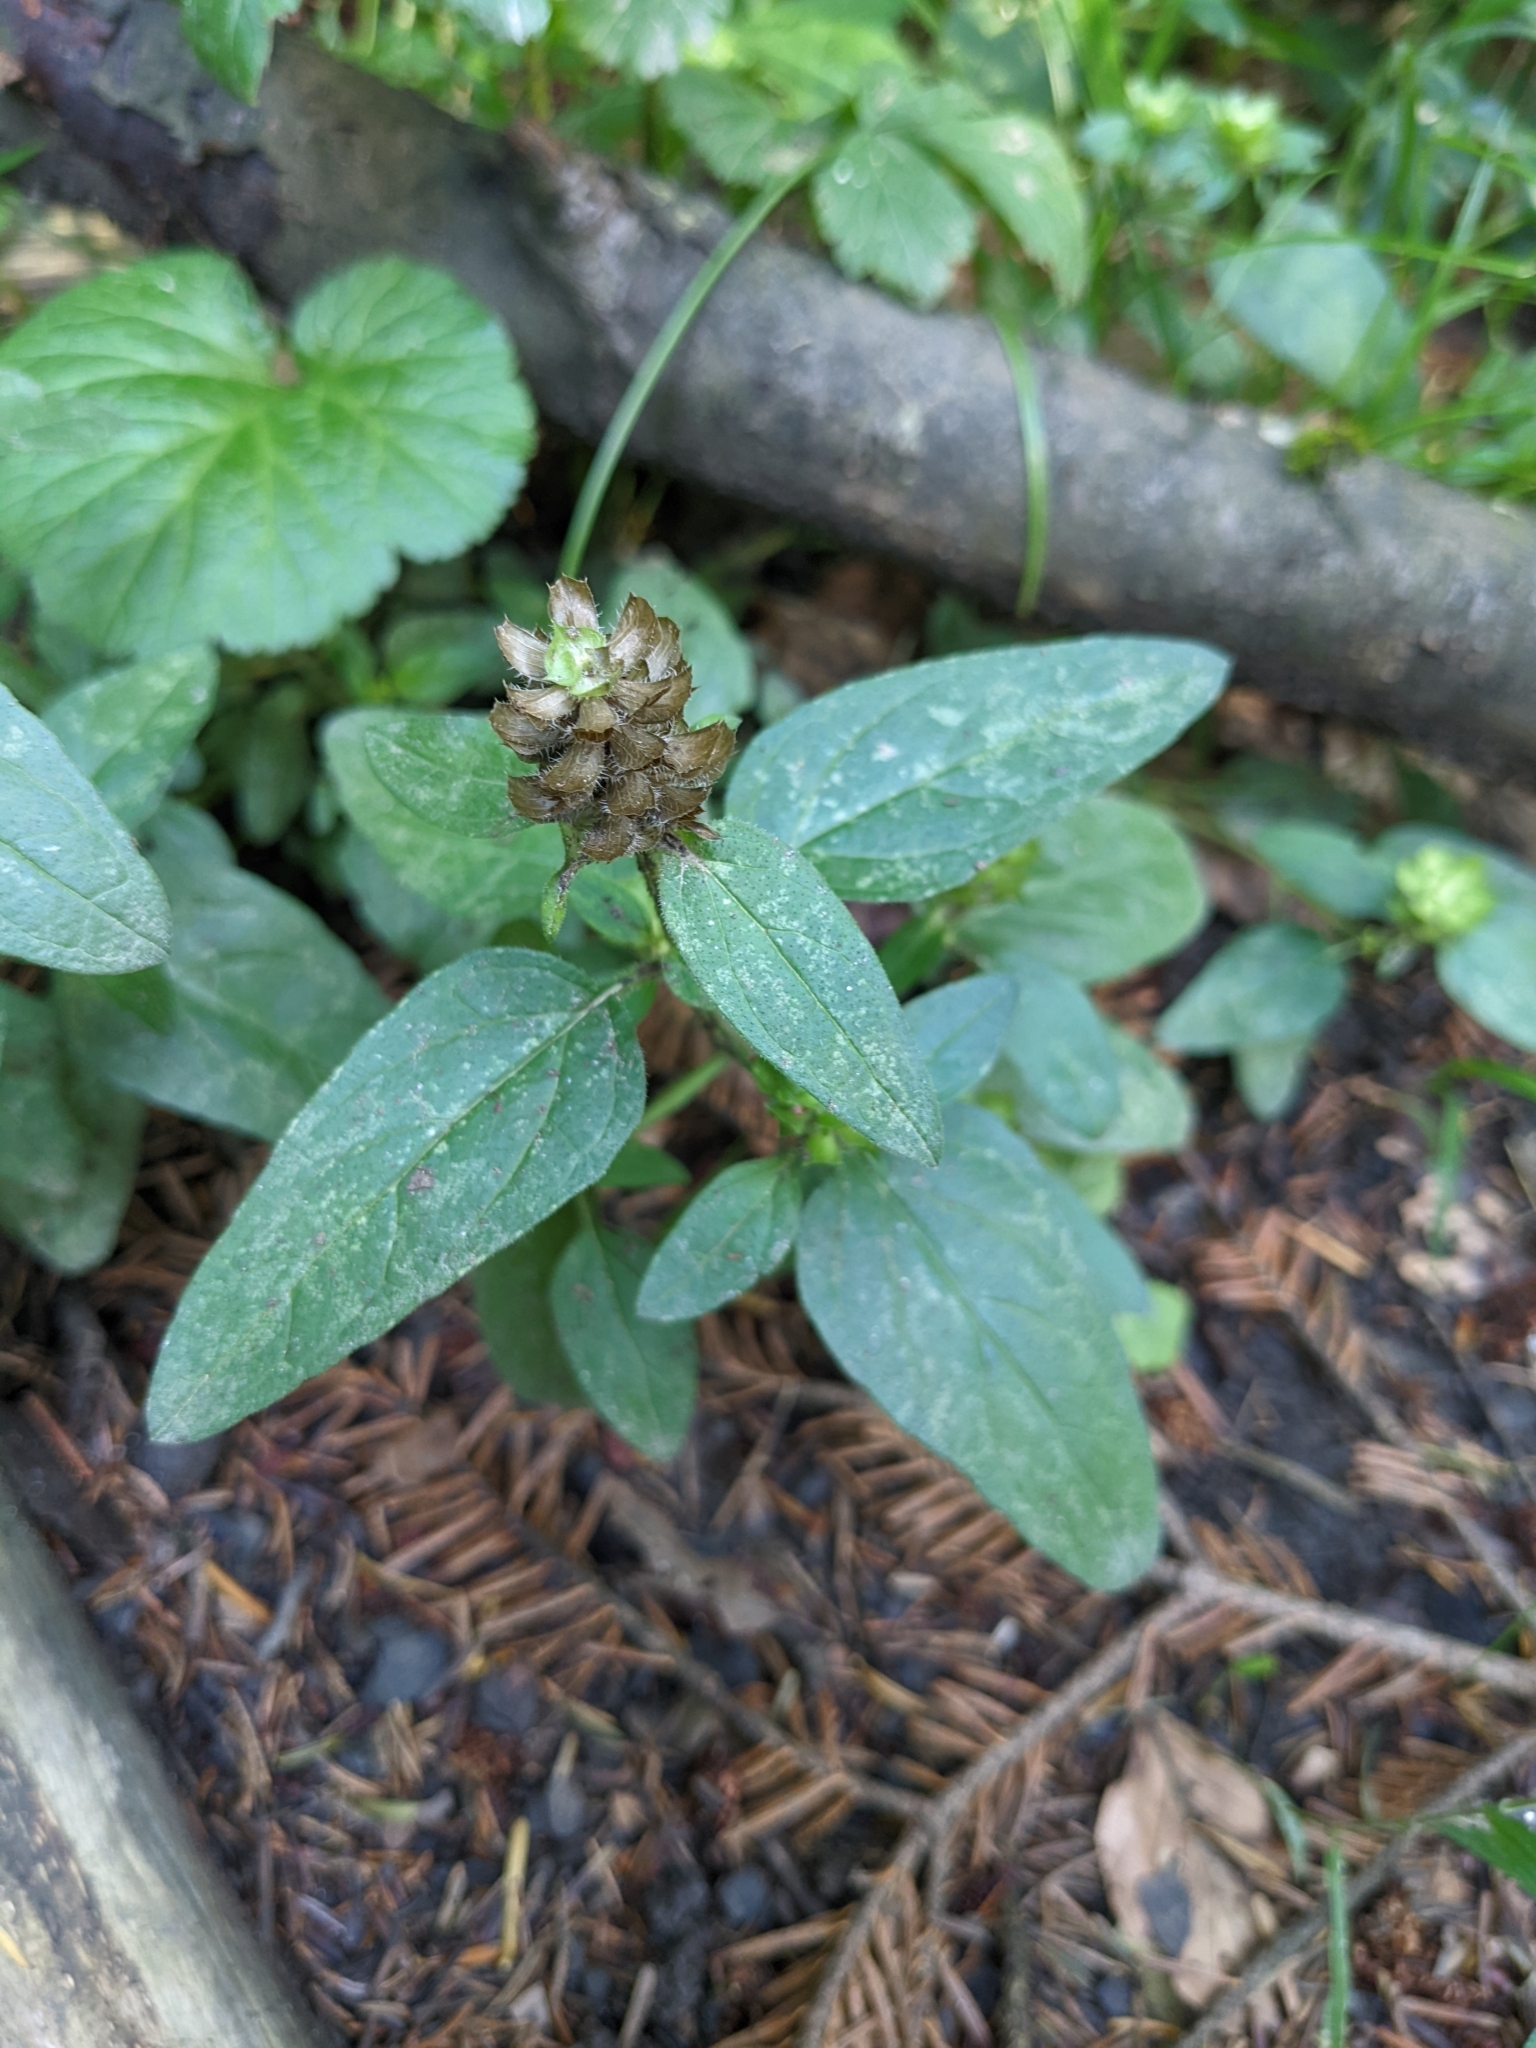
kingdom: Plantae
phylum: Tracheophyta
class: Magnoliopsida
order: Lamiales
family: Lamiaceae
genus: Prunella
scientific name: Prunella vulgaris
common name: Heal-all
